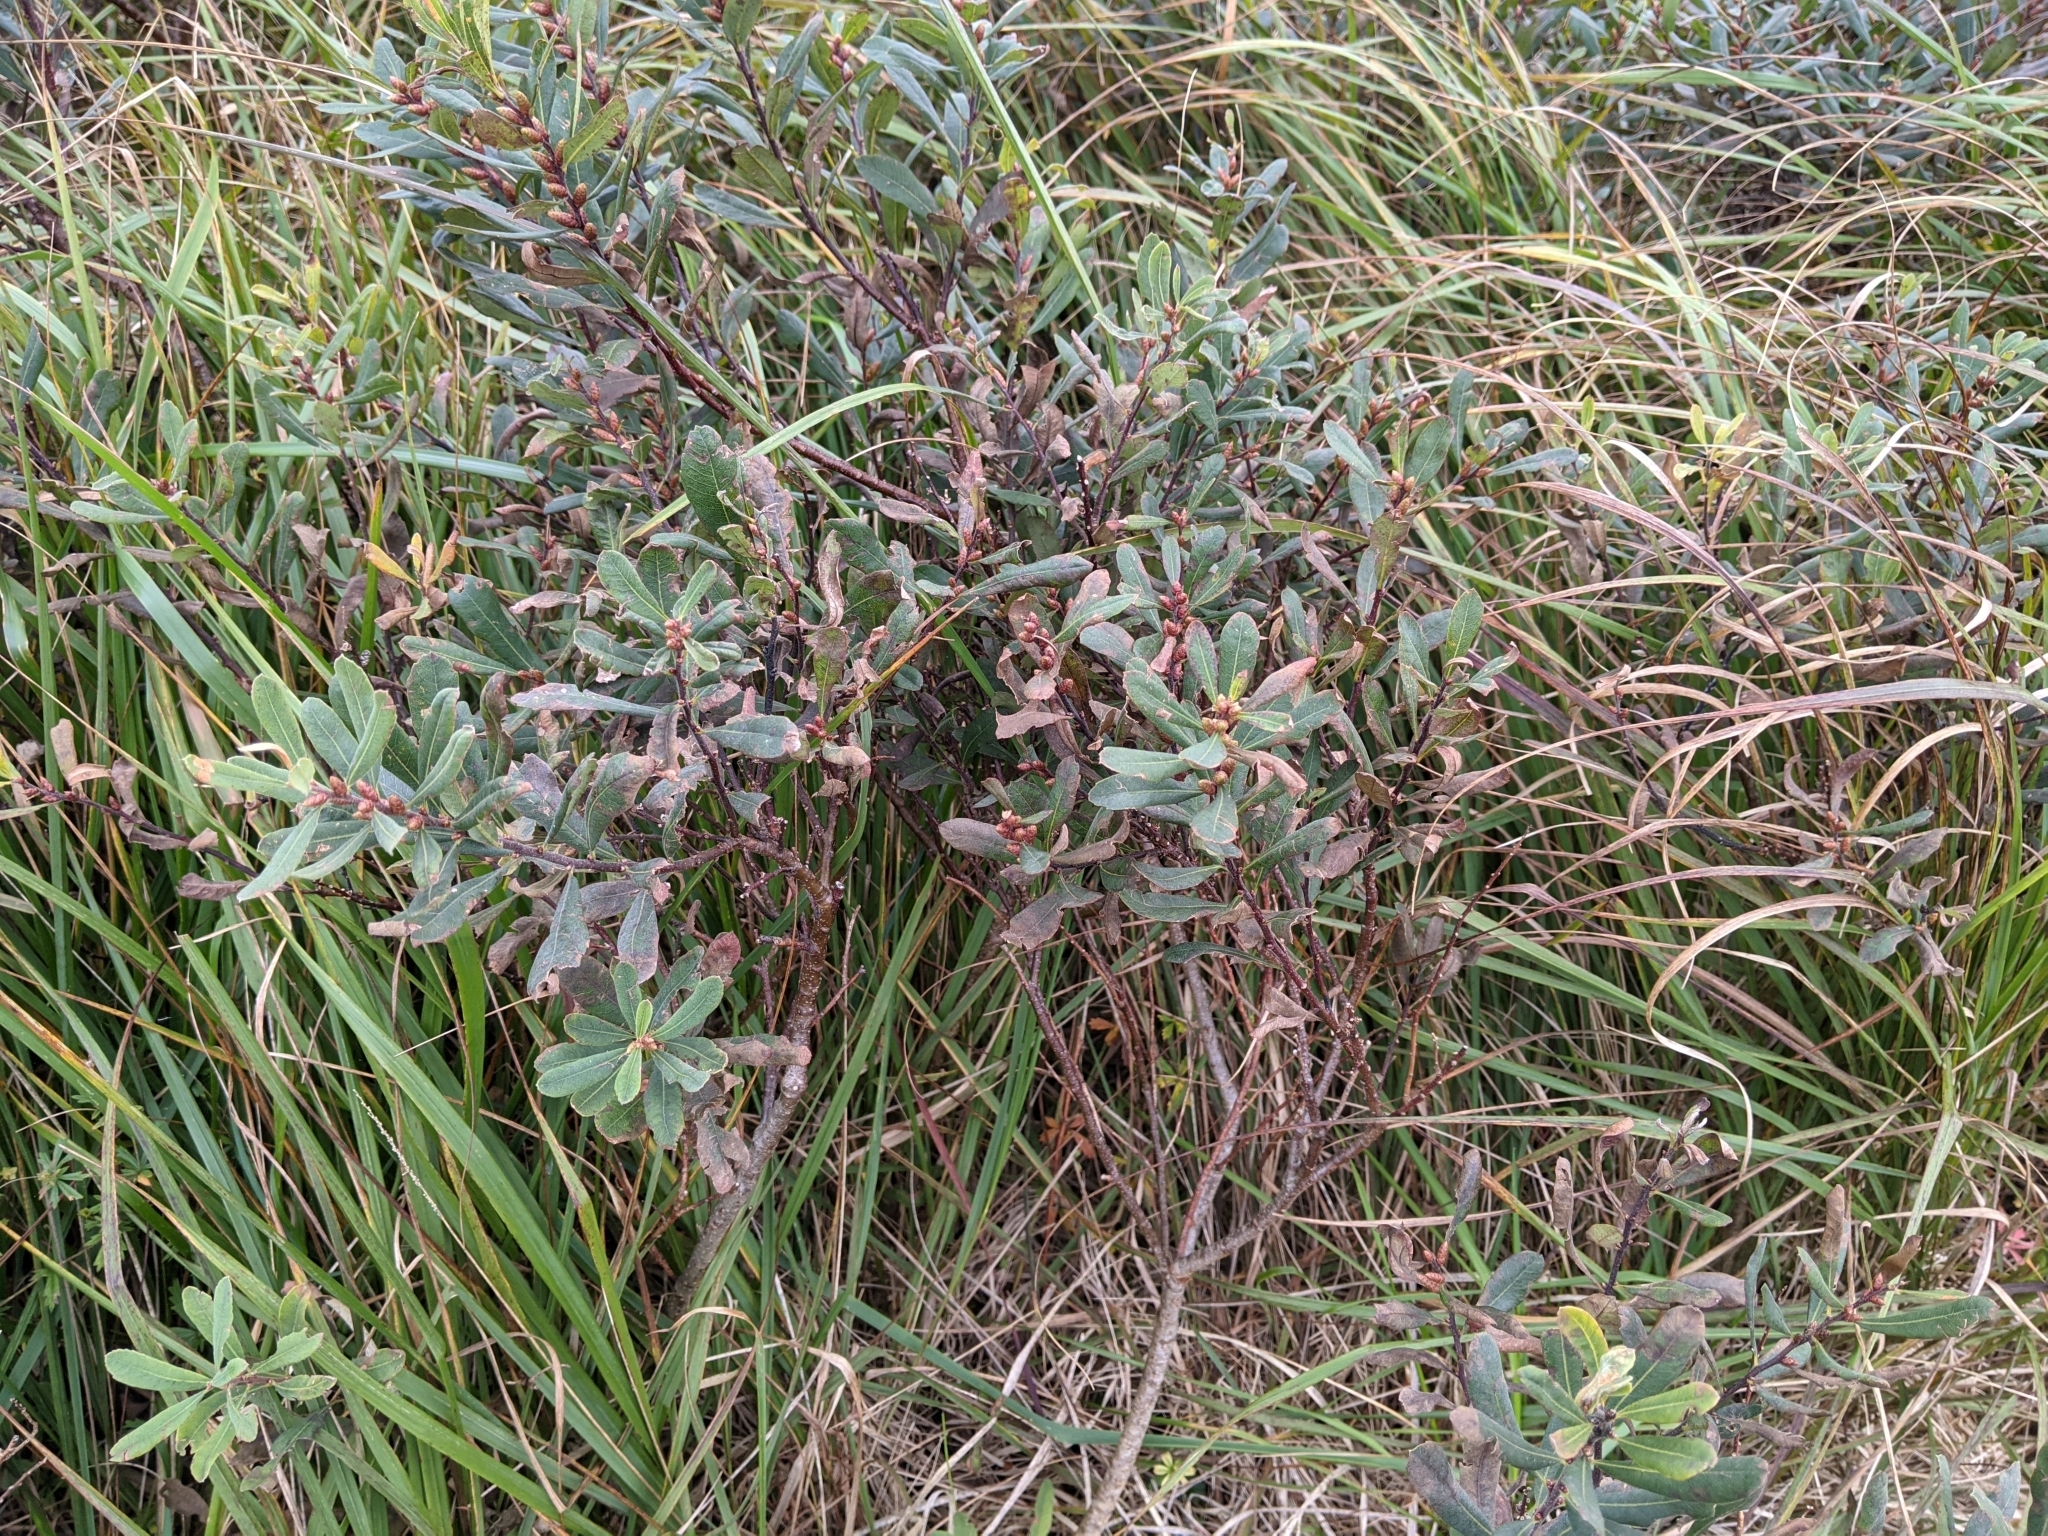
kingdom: Plantae
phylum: Tracheophyta
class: Magnoliopsida
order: Fagales
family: Myricaceae
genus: Myrica
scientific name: Myrica gale
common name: Sweet gale
